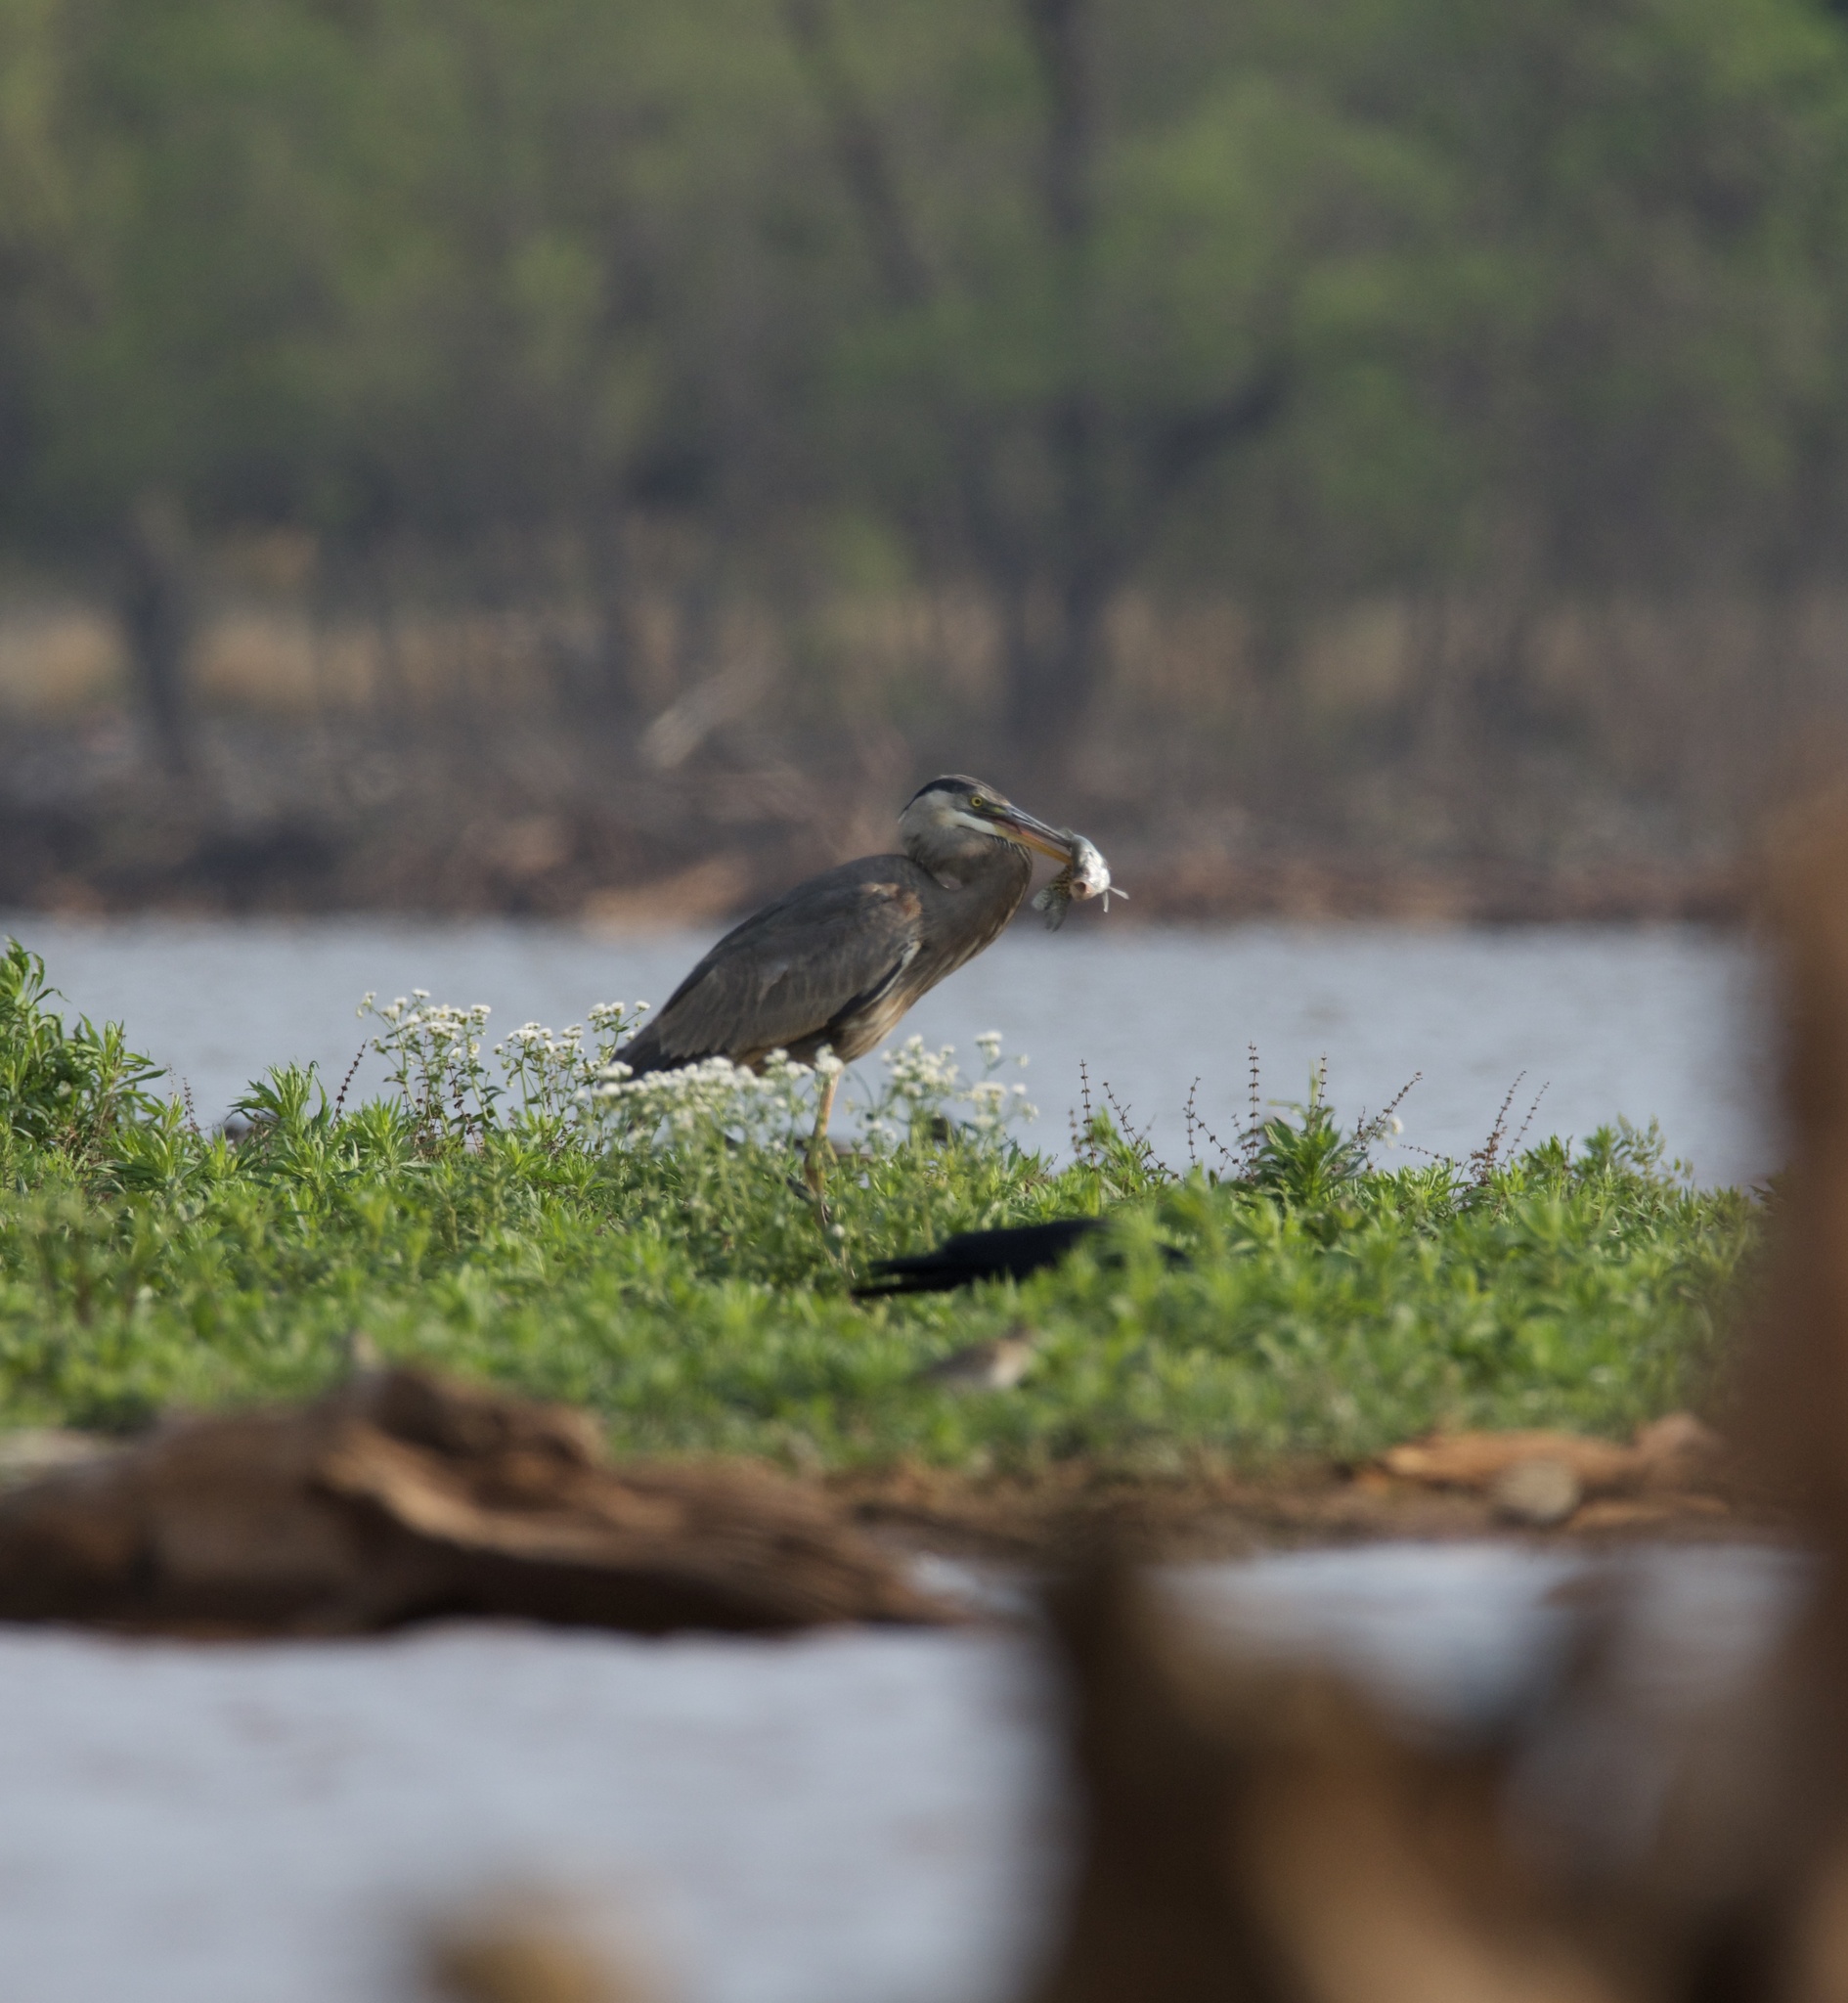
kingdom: Animalia
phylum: Chordata
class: Aves
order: Pelecaniformes
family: Ardeidae
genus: Ardea
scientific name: Ardea herodias
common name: Great blue heron
